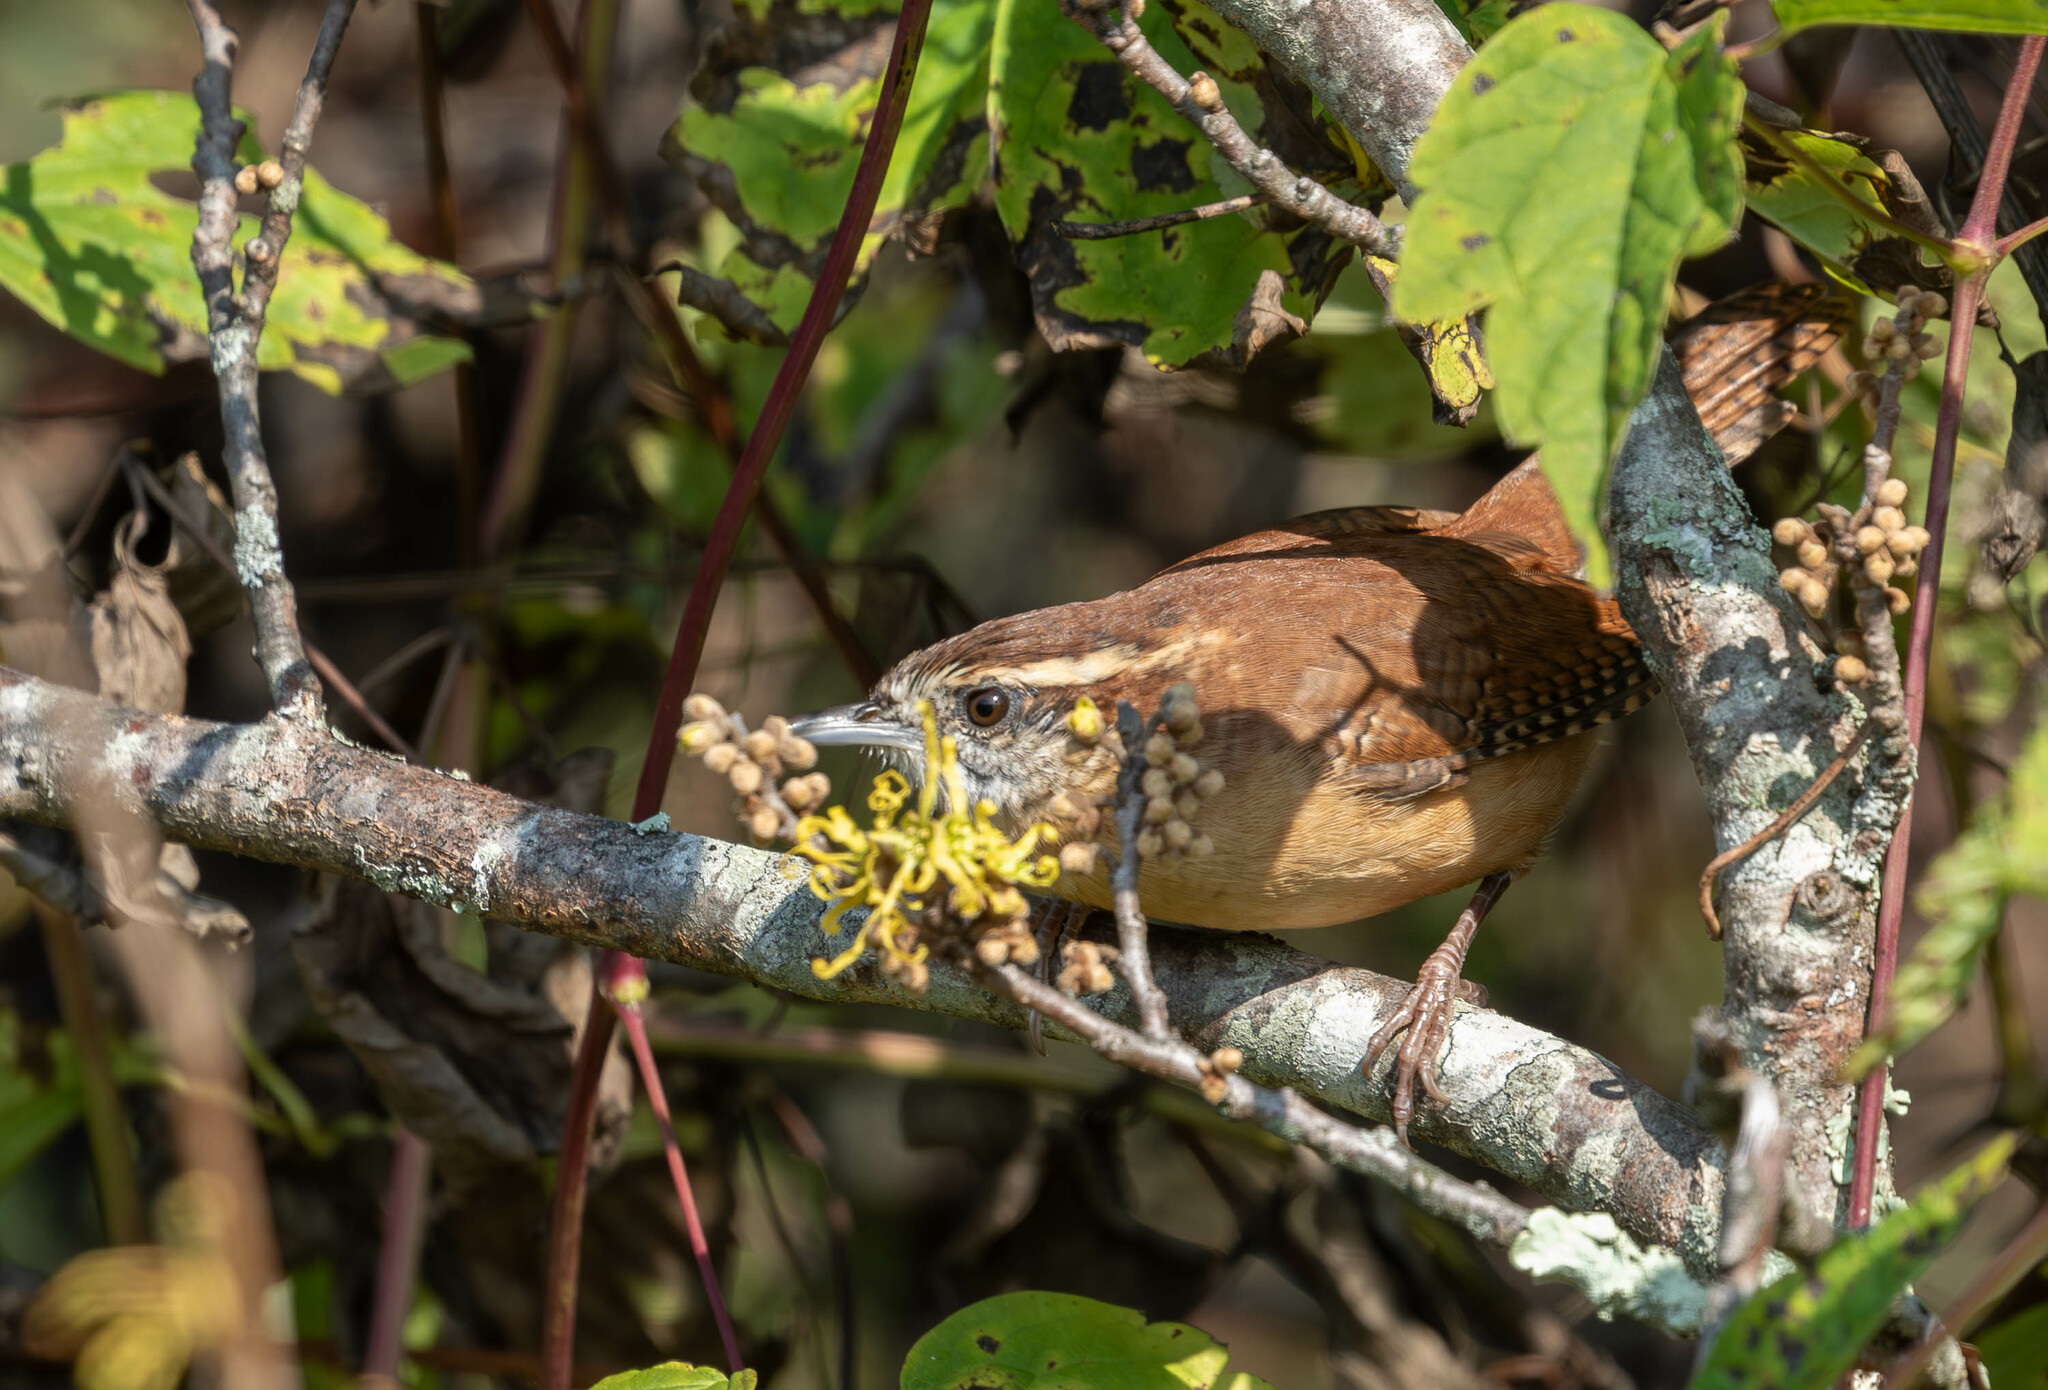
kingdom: Animalia
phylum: Chordata
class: Aves
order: Passeriformes
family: Troglodytidae
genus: Thryothorus
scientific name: Thryothorus ludovicianus
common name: Carolina wren
